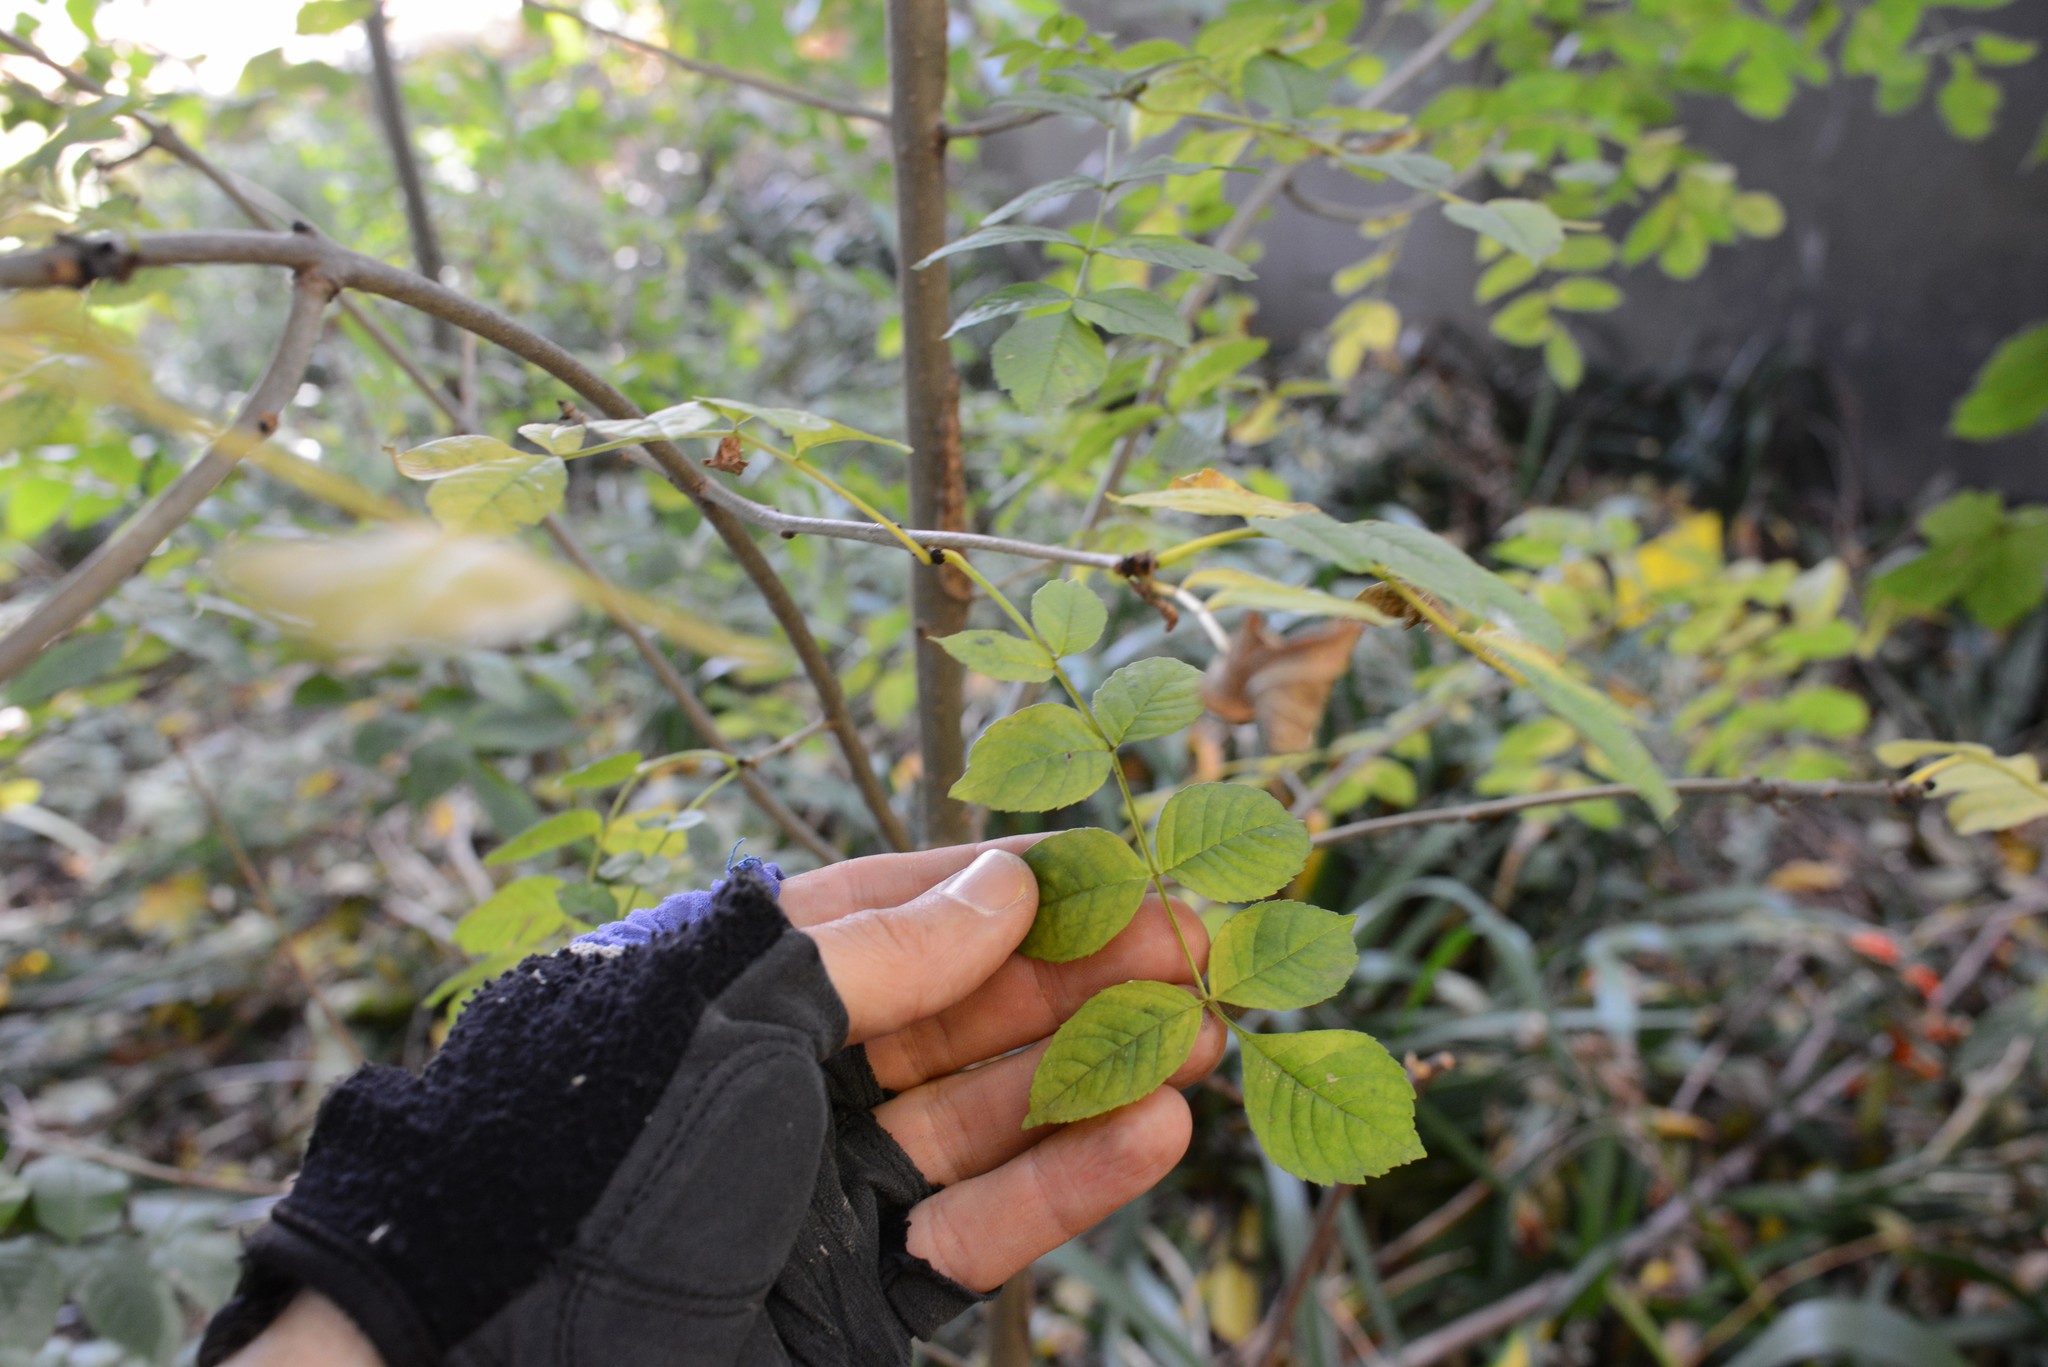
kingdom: Plantae
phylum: Tracheophyta
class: Magnoliopsida
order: Lamiales
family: Oleaceae
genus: Fraxinus
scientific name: Fraxinus excelsior
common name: European ash
